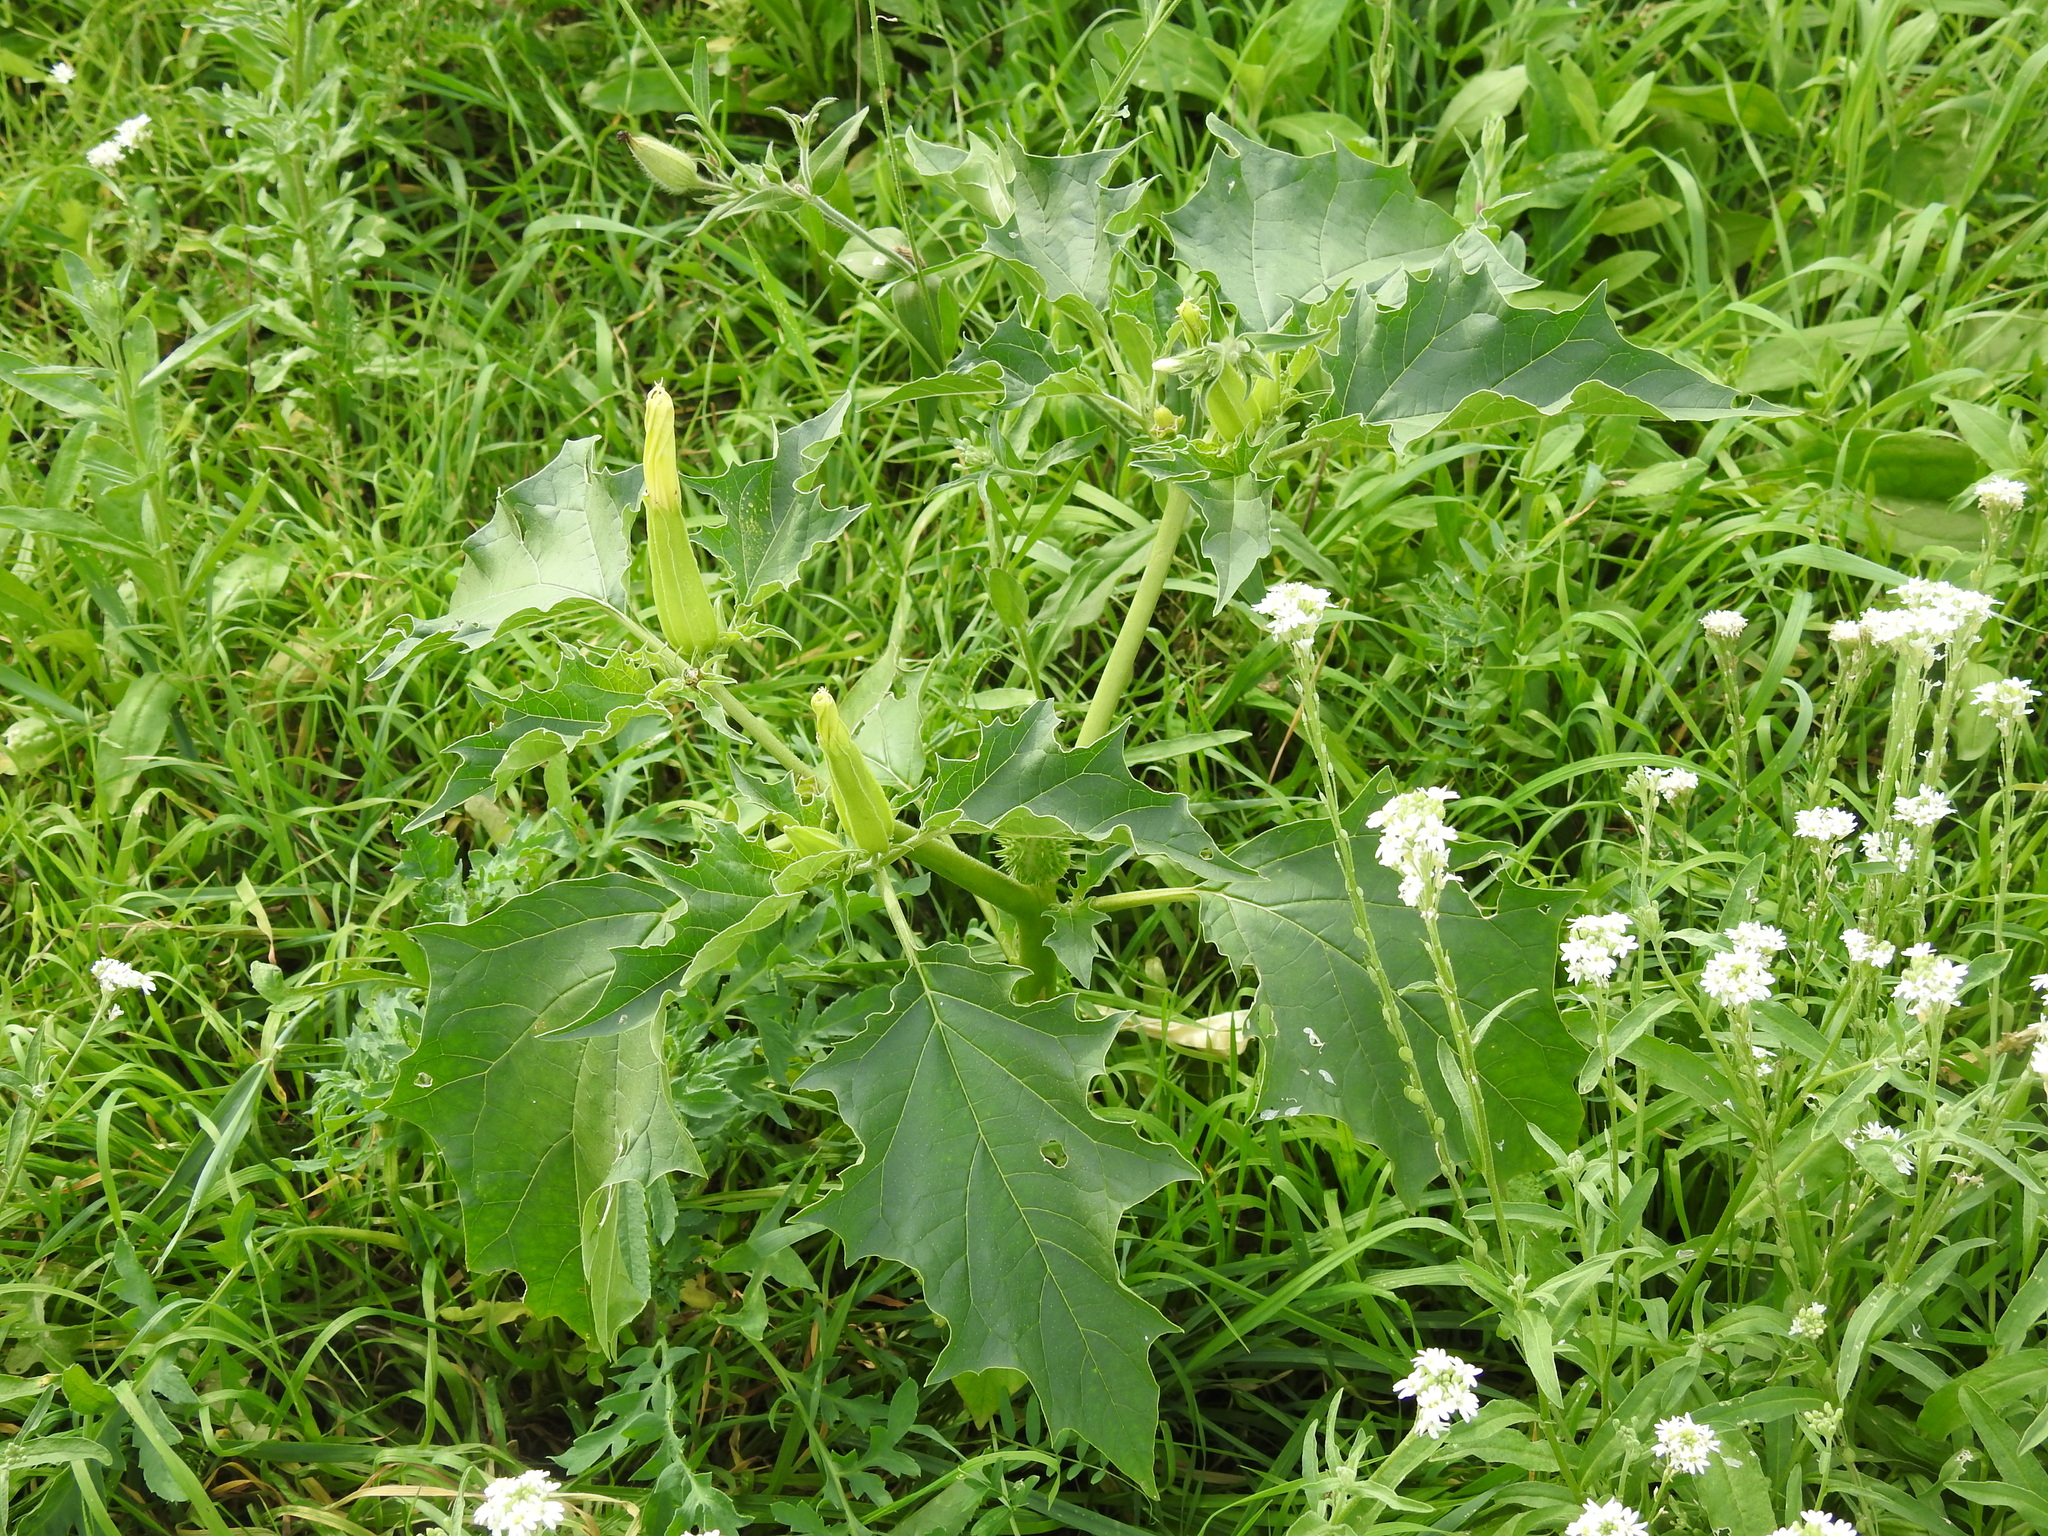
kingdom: Plantae
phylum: Tracheophyta
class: Magnoliopsida
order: Solanales
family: Solanaceae
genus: Datura
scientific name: Datura stramonium
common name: Thorn-apple
